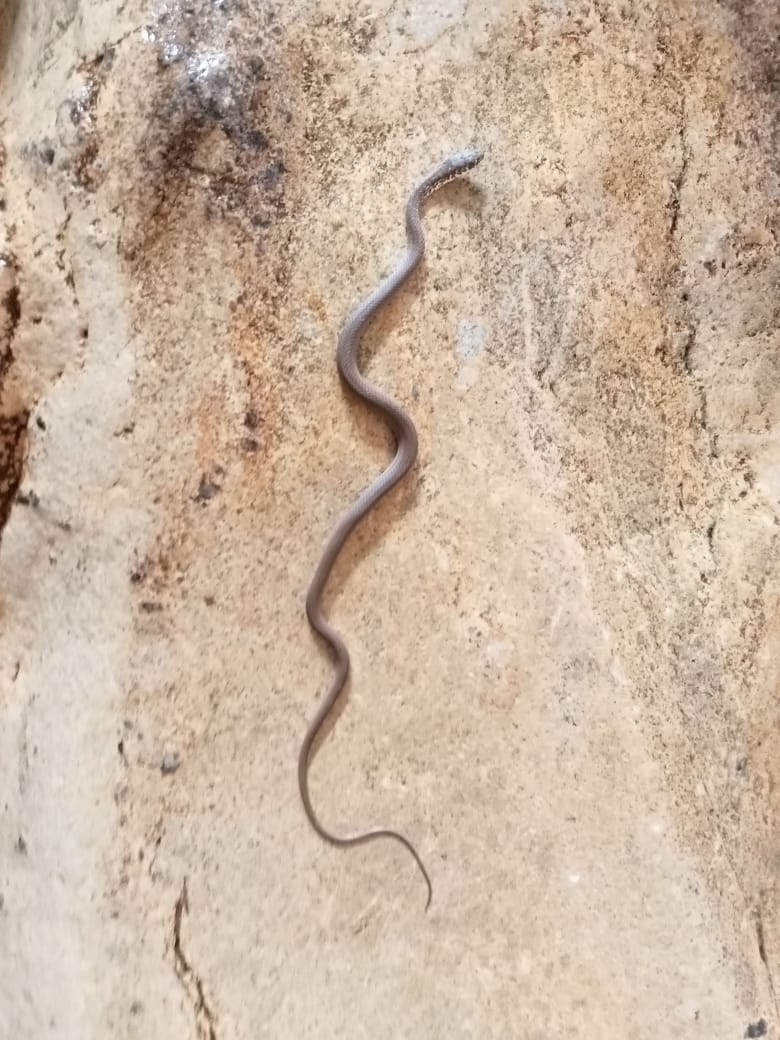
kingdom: Animalia
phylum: Chordata
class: Squamata
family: Colubridae
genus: Masticophis
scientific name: Masticophis mentovarius
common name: Neotropical whip snake
